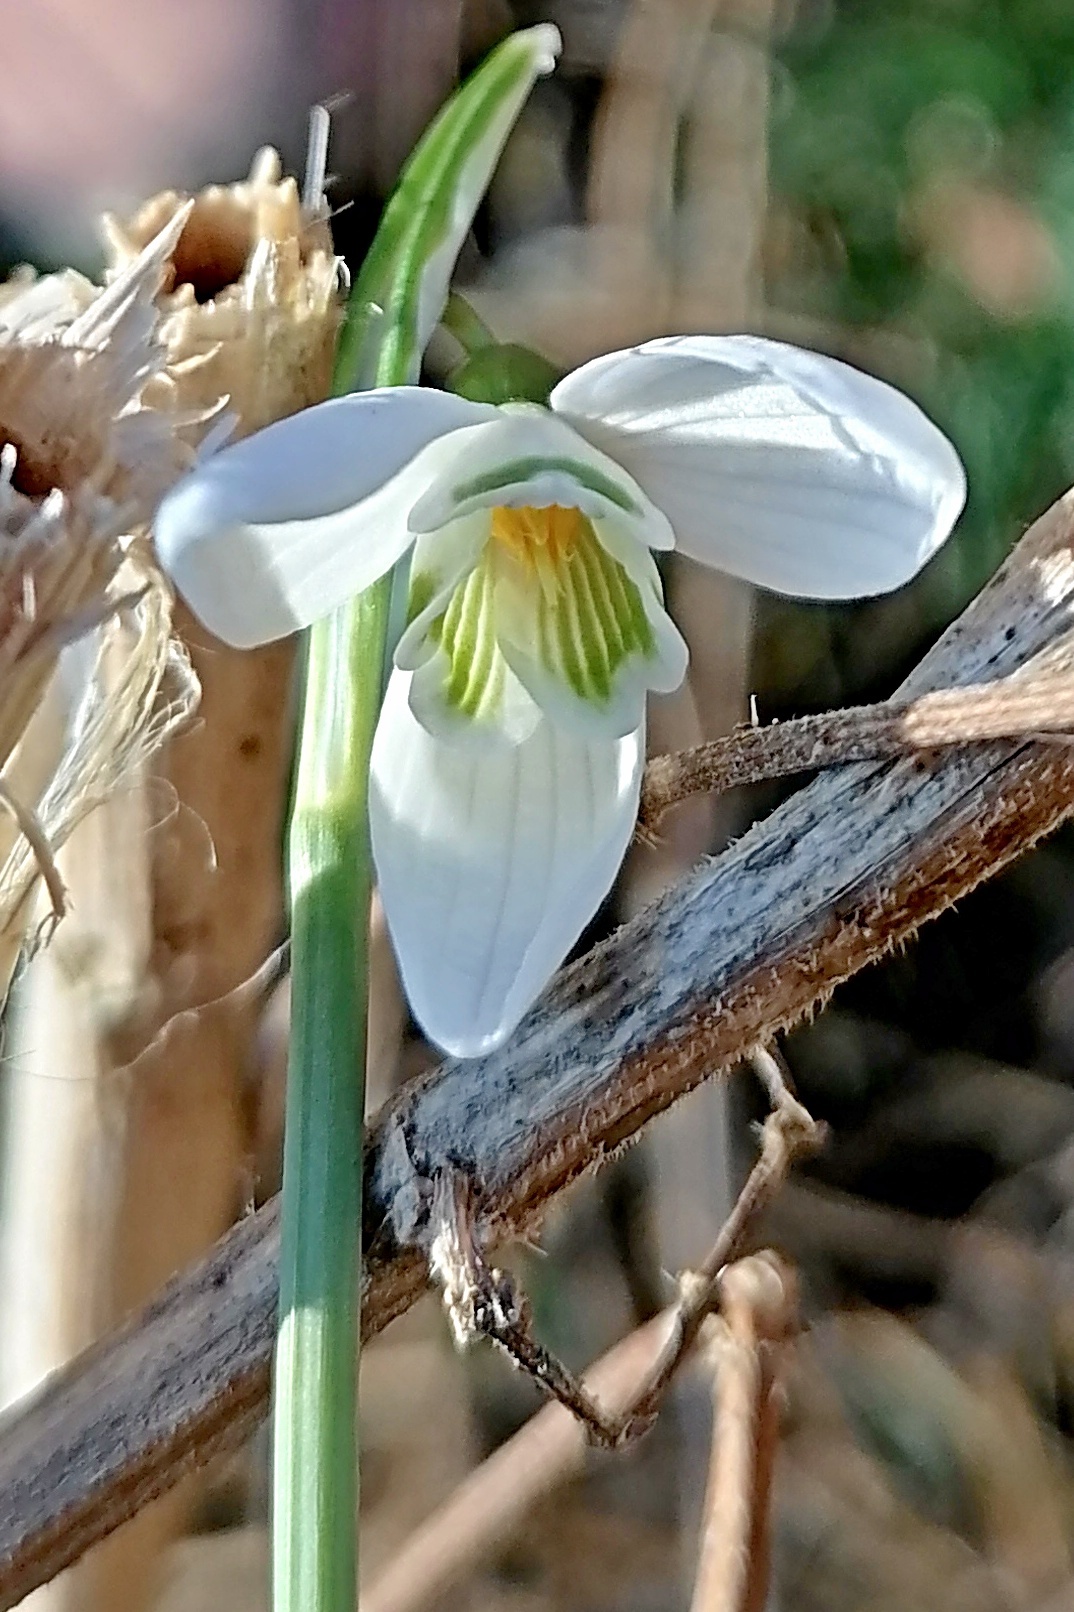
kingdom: Plantae
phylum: Tracheophyta
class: Liliopsida
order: Asparagales
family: Amaryllidaceae
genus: Galanthus
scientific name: Galanthus nivalis
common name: Snowdrop
